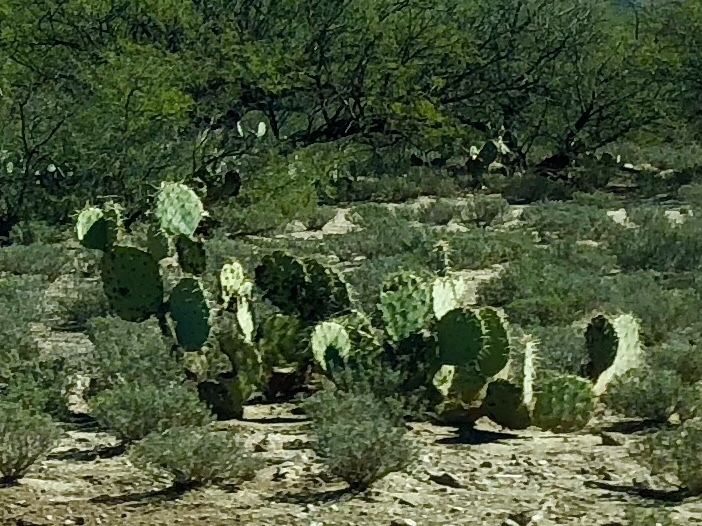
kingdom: Plantae
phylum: Tracheophyta
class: Magnoliopsida
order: Caryophyllales
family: Cactaceae
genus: Opuntia
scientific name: Opuntia engelmannii
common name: Cactus-apple
